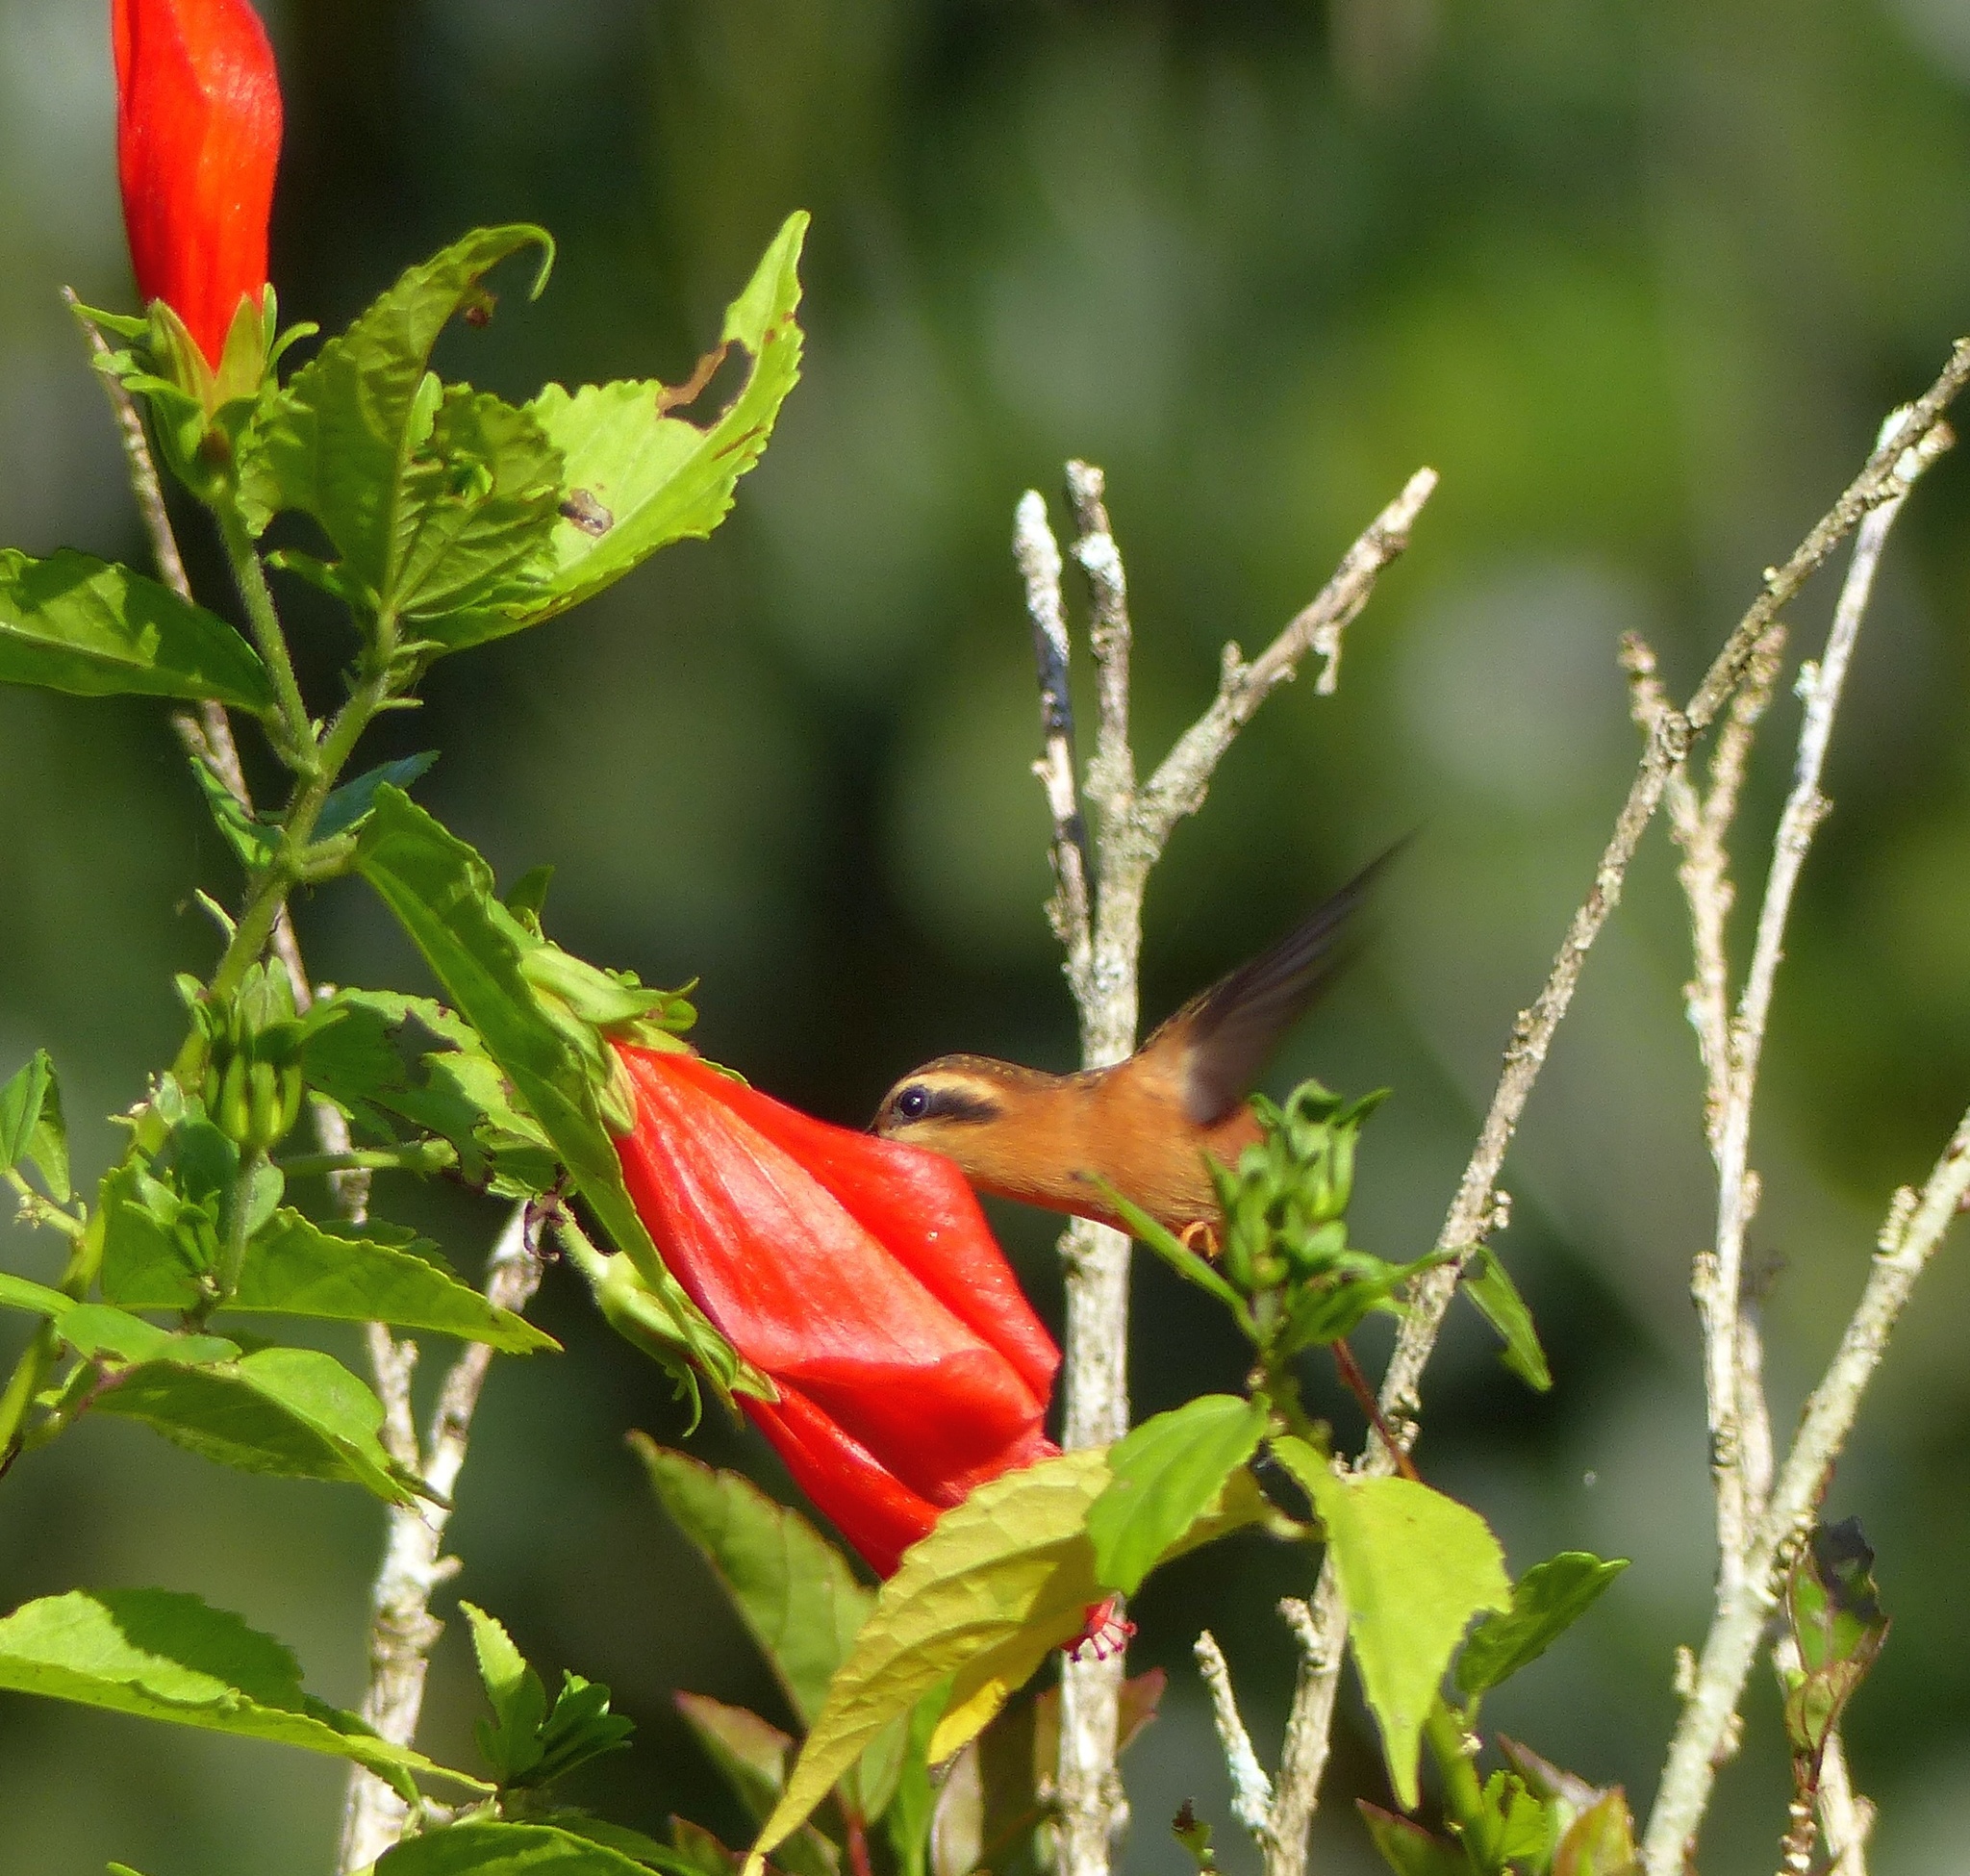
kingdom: Animalia
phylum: Chordata
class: Aves
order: Apodiformes
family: Trochilidae
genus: Phaethornis
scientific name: Phaethornis ruber
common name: Reddish hermit
